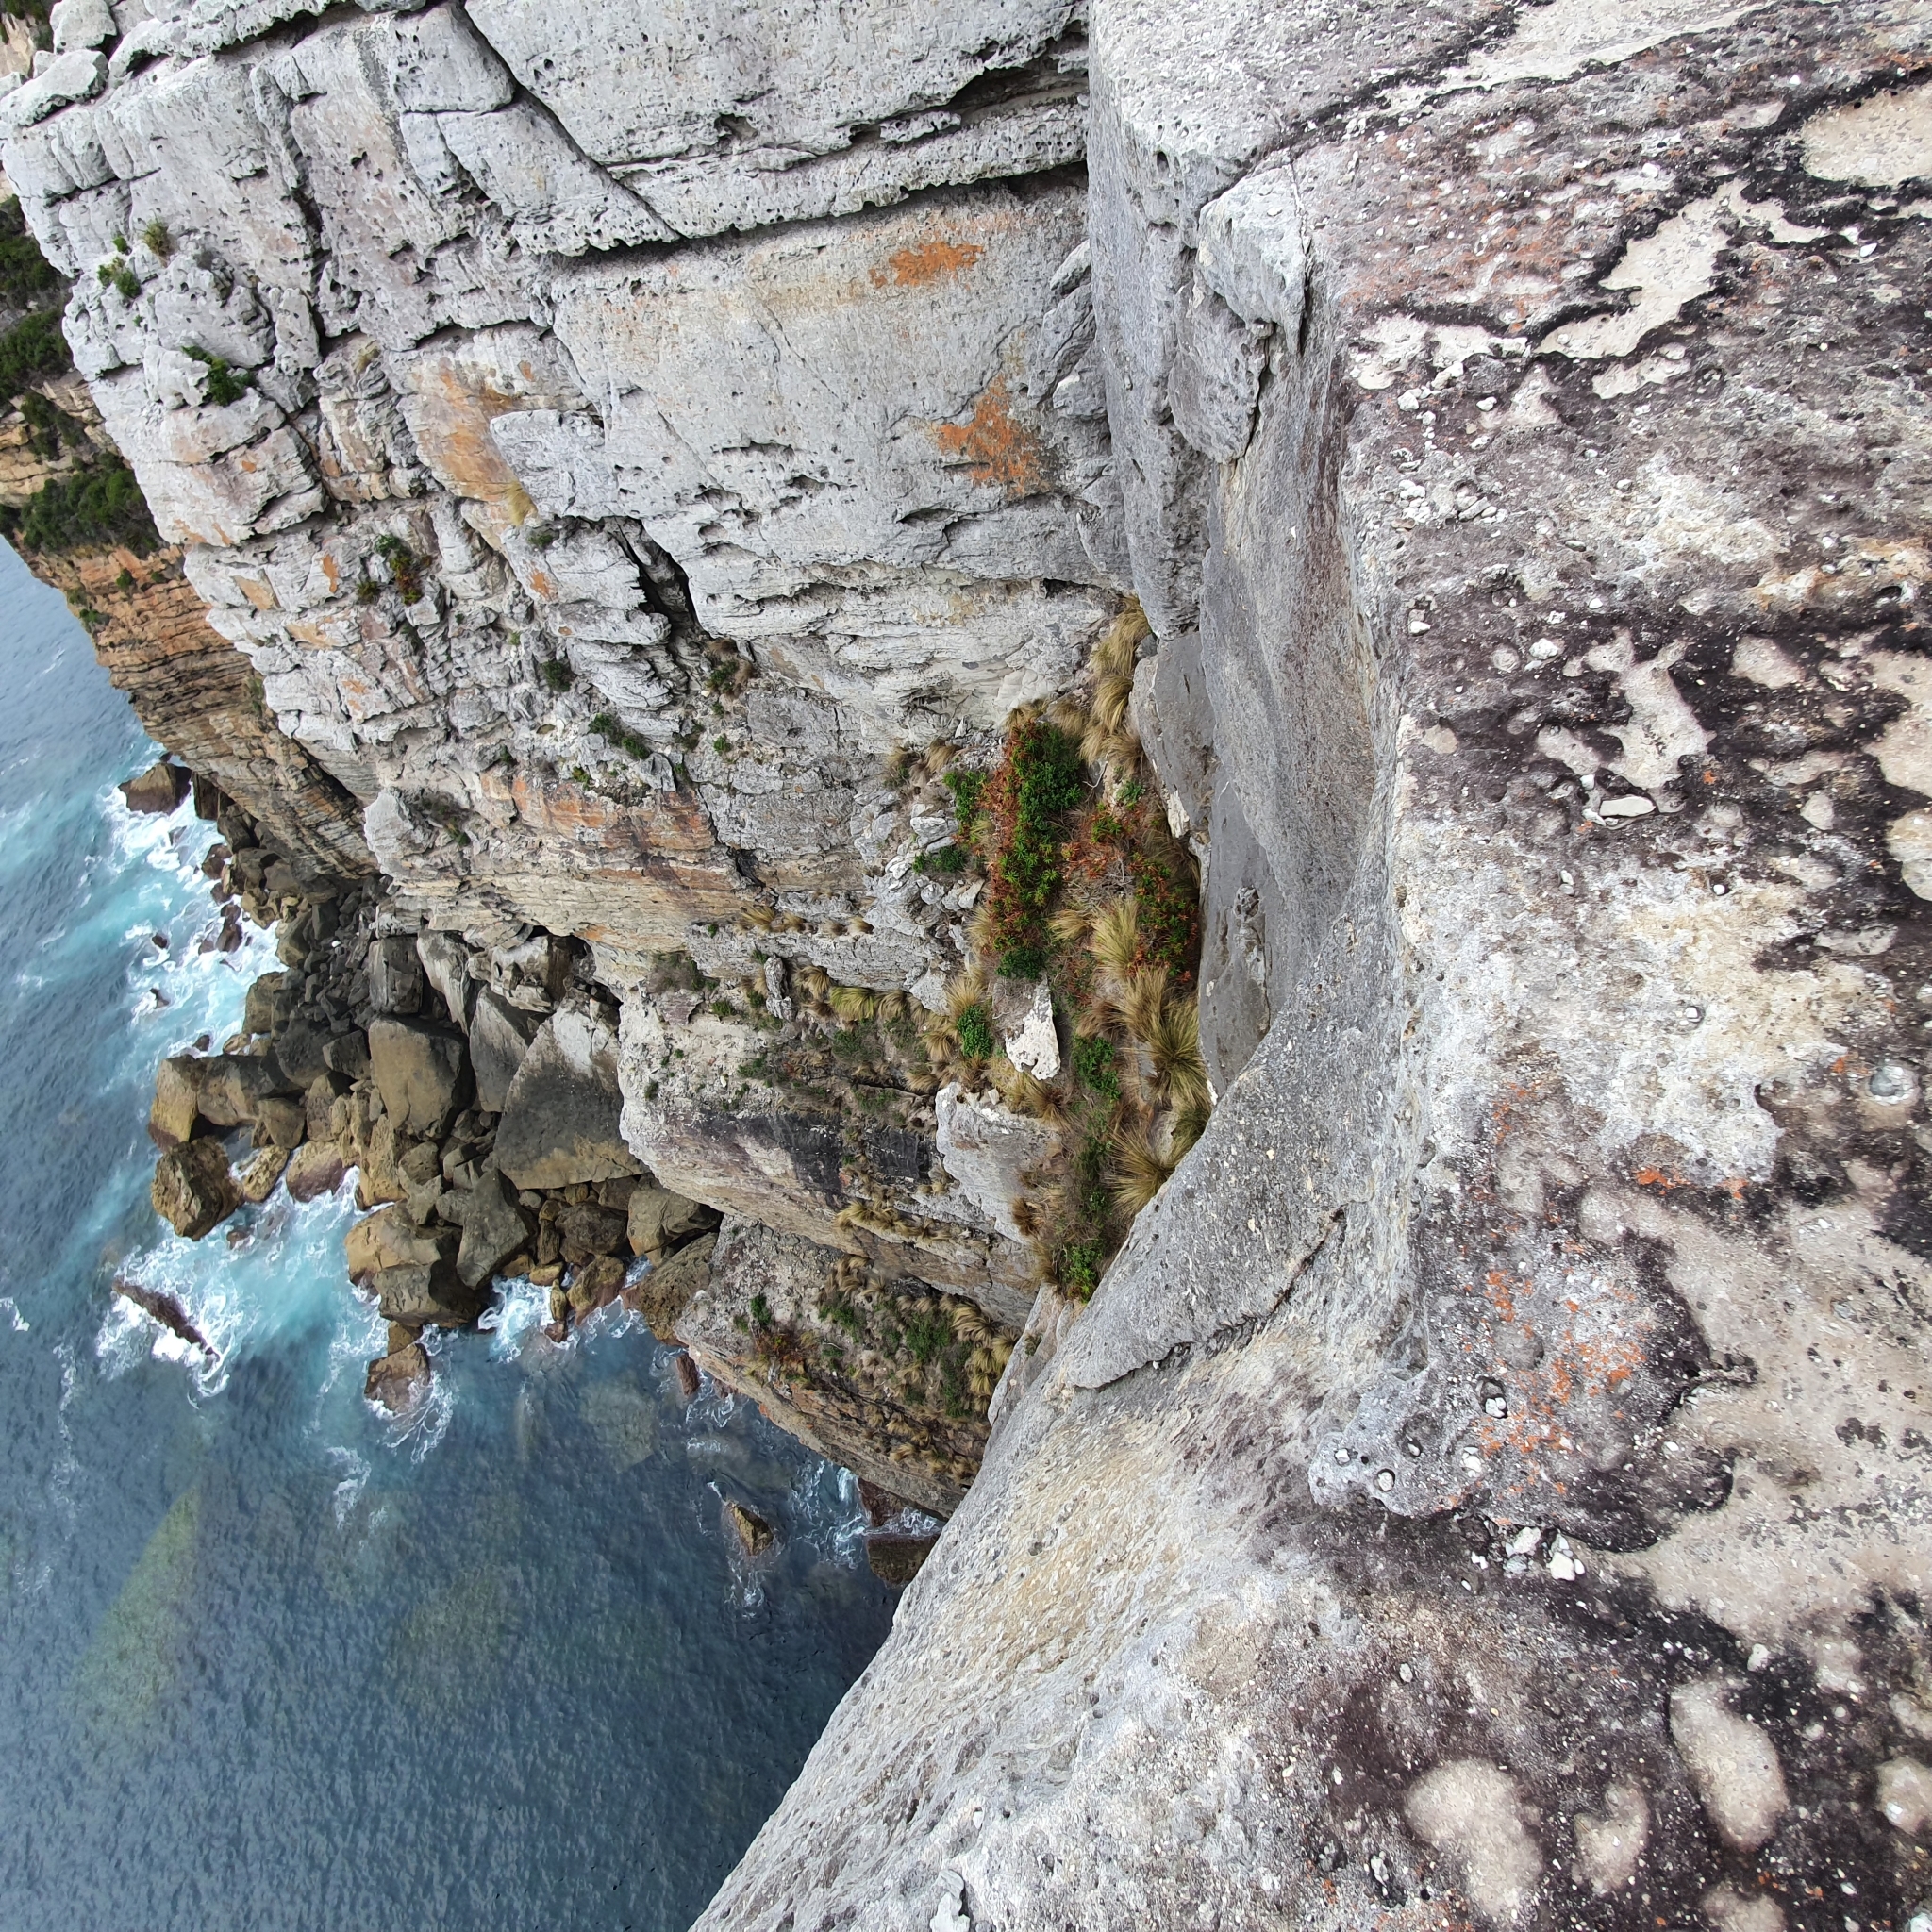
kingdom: Plantae
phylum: Tracheophyta
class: Magnoliopsida
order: Ericales
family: Ericaceae
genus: Dracophyllum
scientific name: Dracophyllum oceanicum
